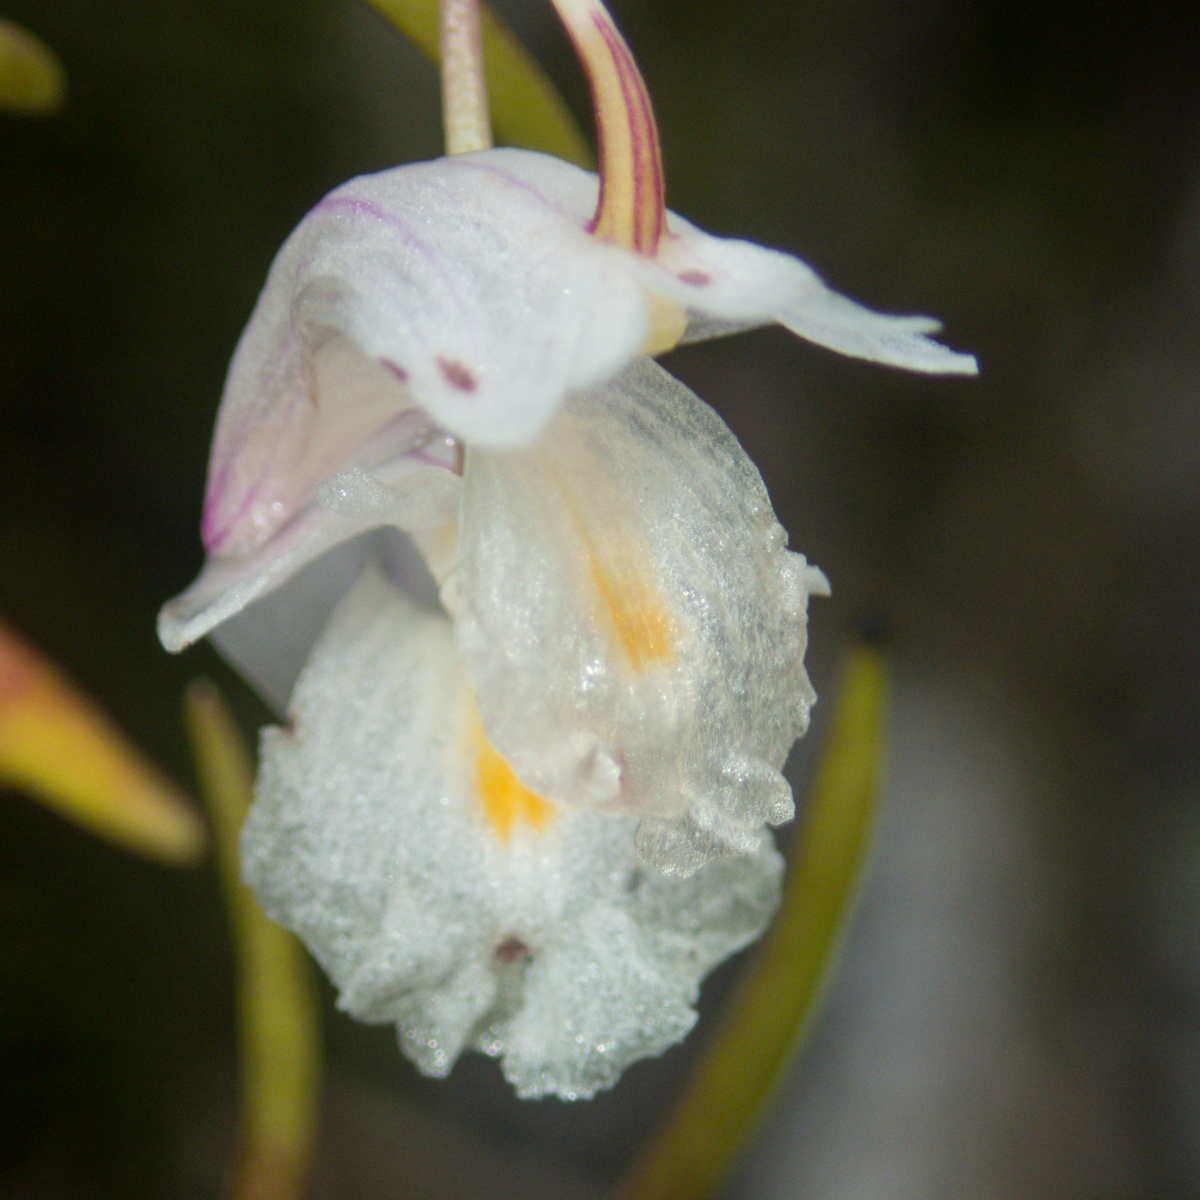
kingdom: Plantae
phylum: Tracheophyta
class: Liliopsida
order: Asparagales
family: Orchidaceae
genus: Dendrobium
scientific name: Dendrobium acerosum
